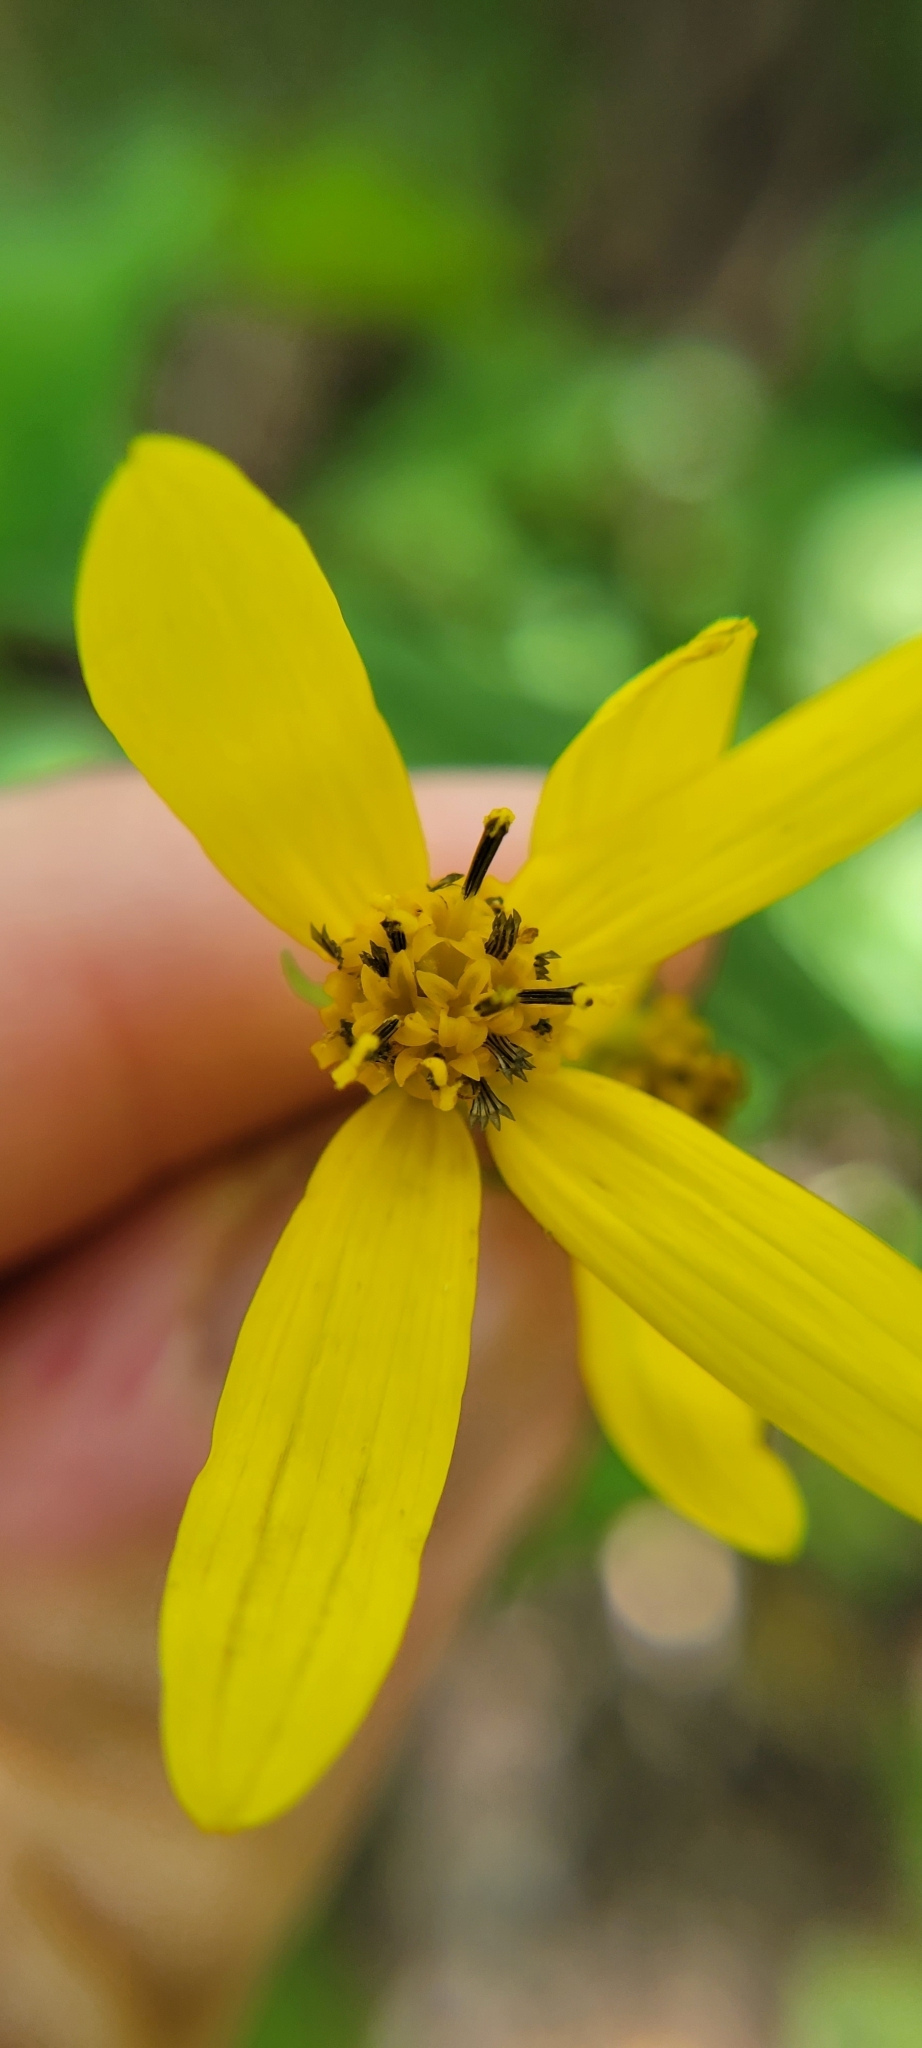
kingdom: Plantae
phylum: Tracheophyta
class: Magnoliopsida
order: Asterales
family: Asteraceae
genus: Helianthus
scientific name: Helianthus microcephalus
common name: Woodland sunflower
